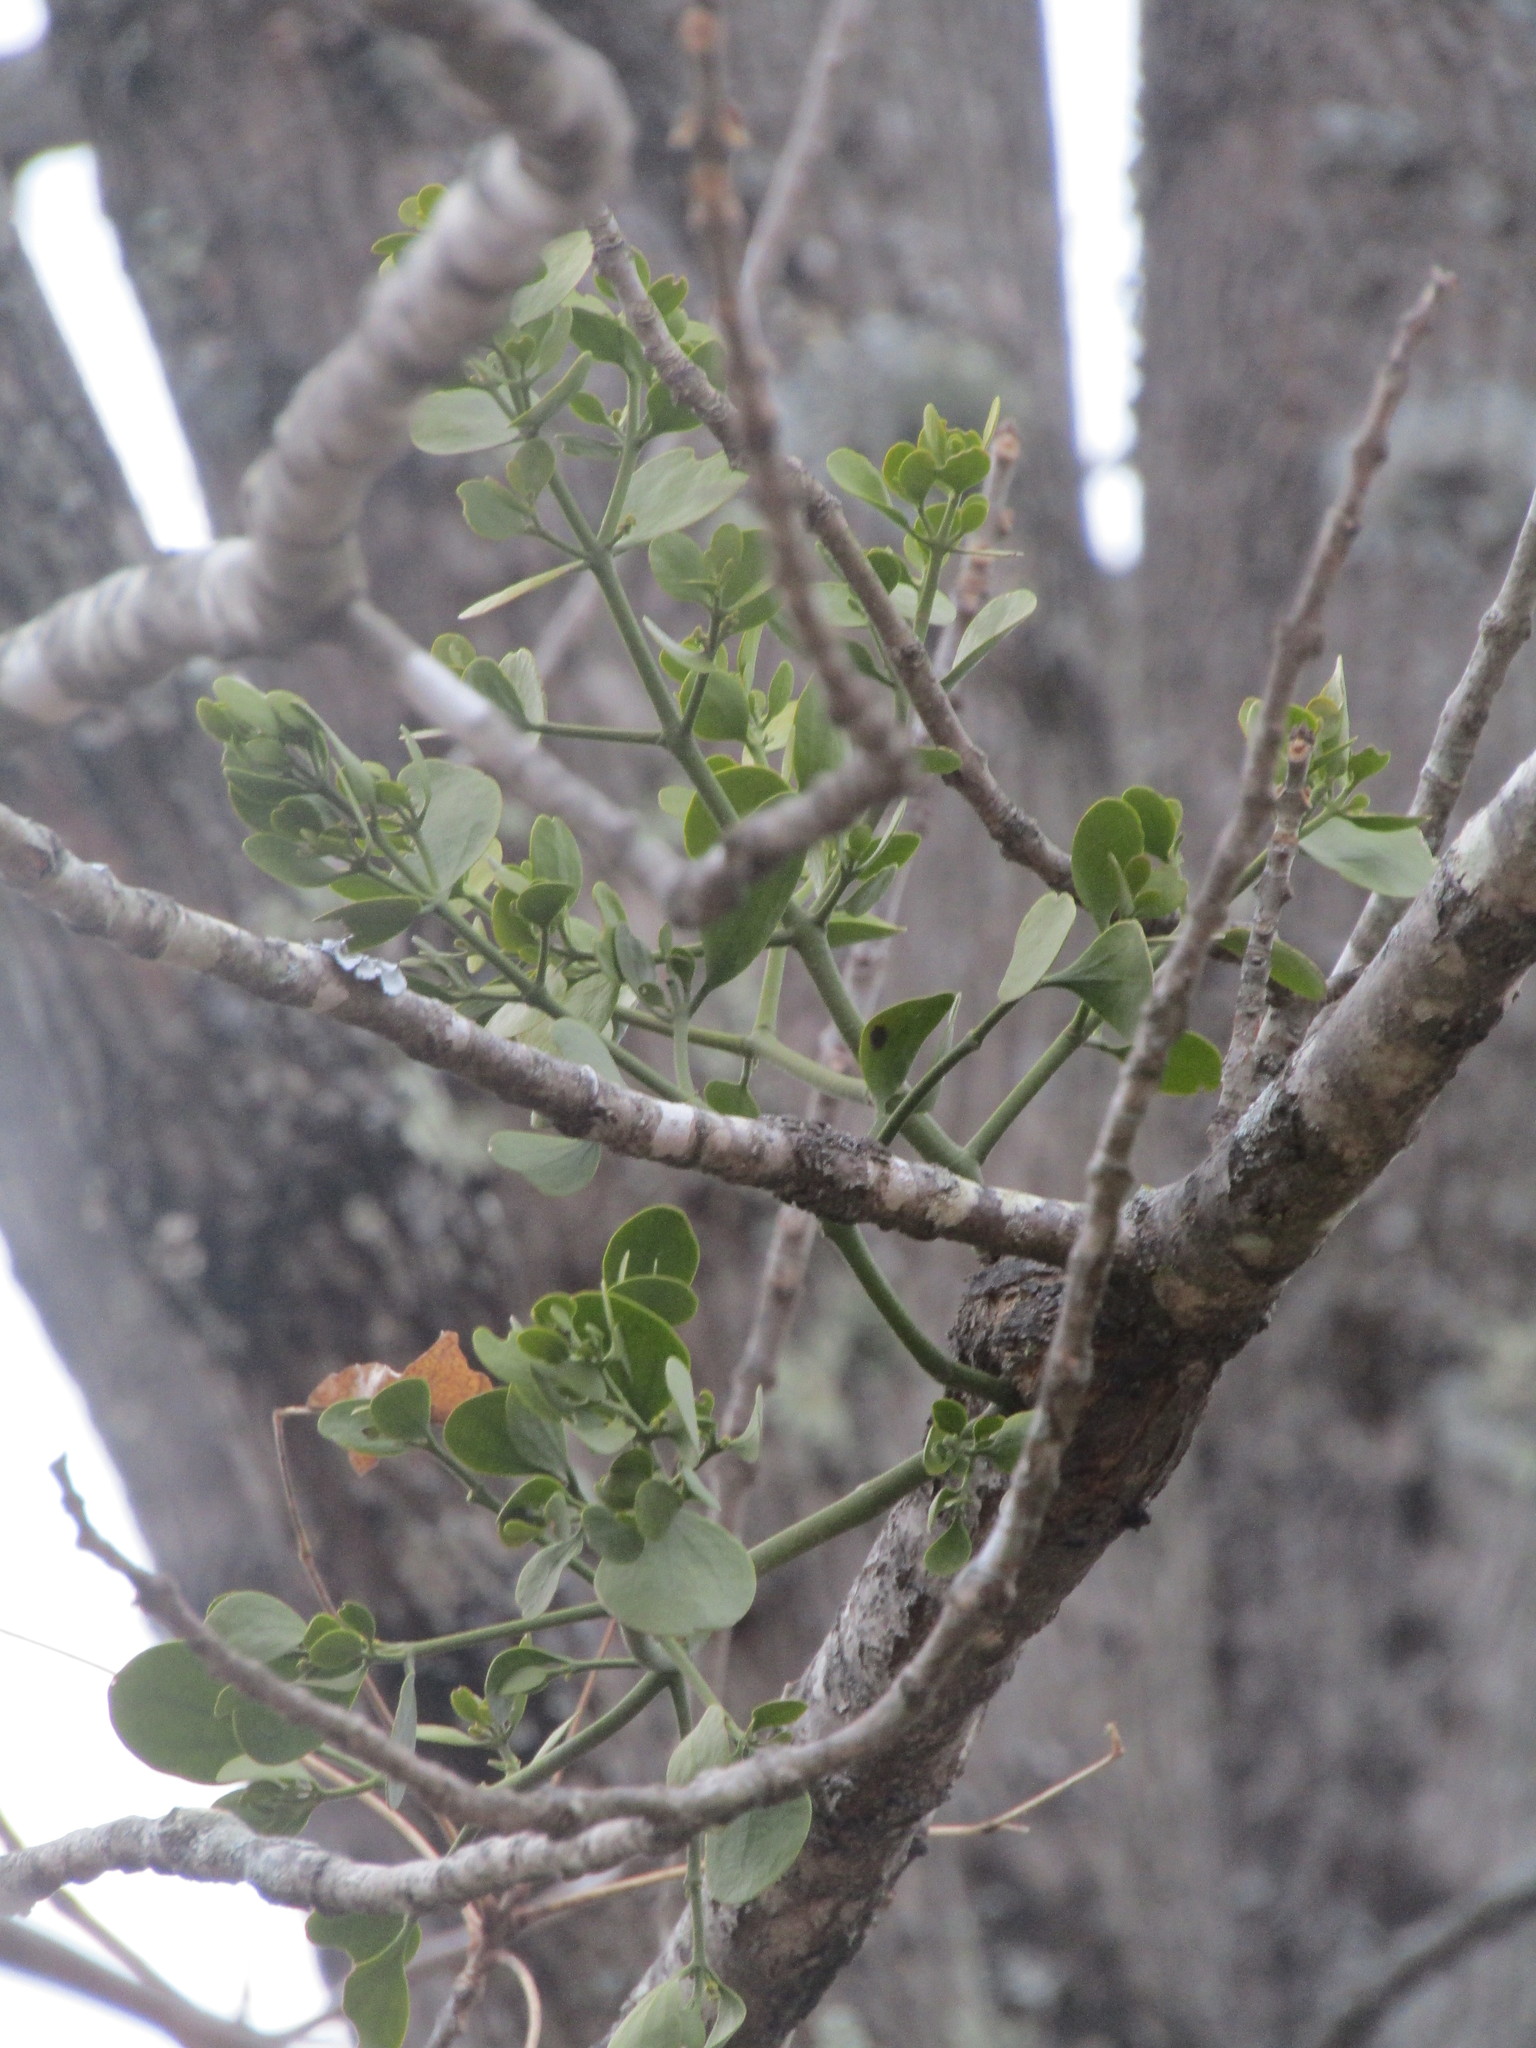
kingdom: Plantae
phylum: Tracheophyta
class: Magnoliopsida
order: Santalales
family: Viscaceae
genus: Phoradendron
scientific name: Phoradendron leucarpum
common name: Pacific mistletoe
